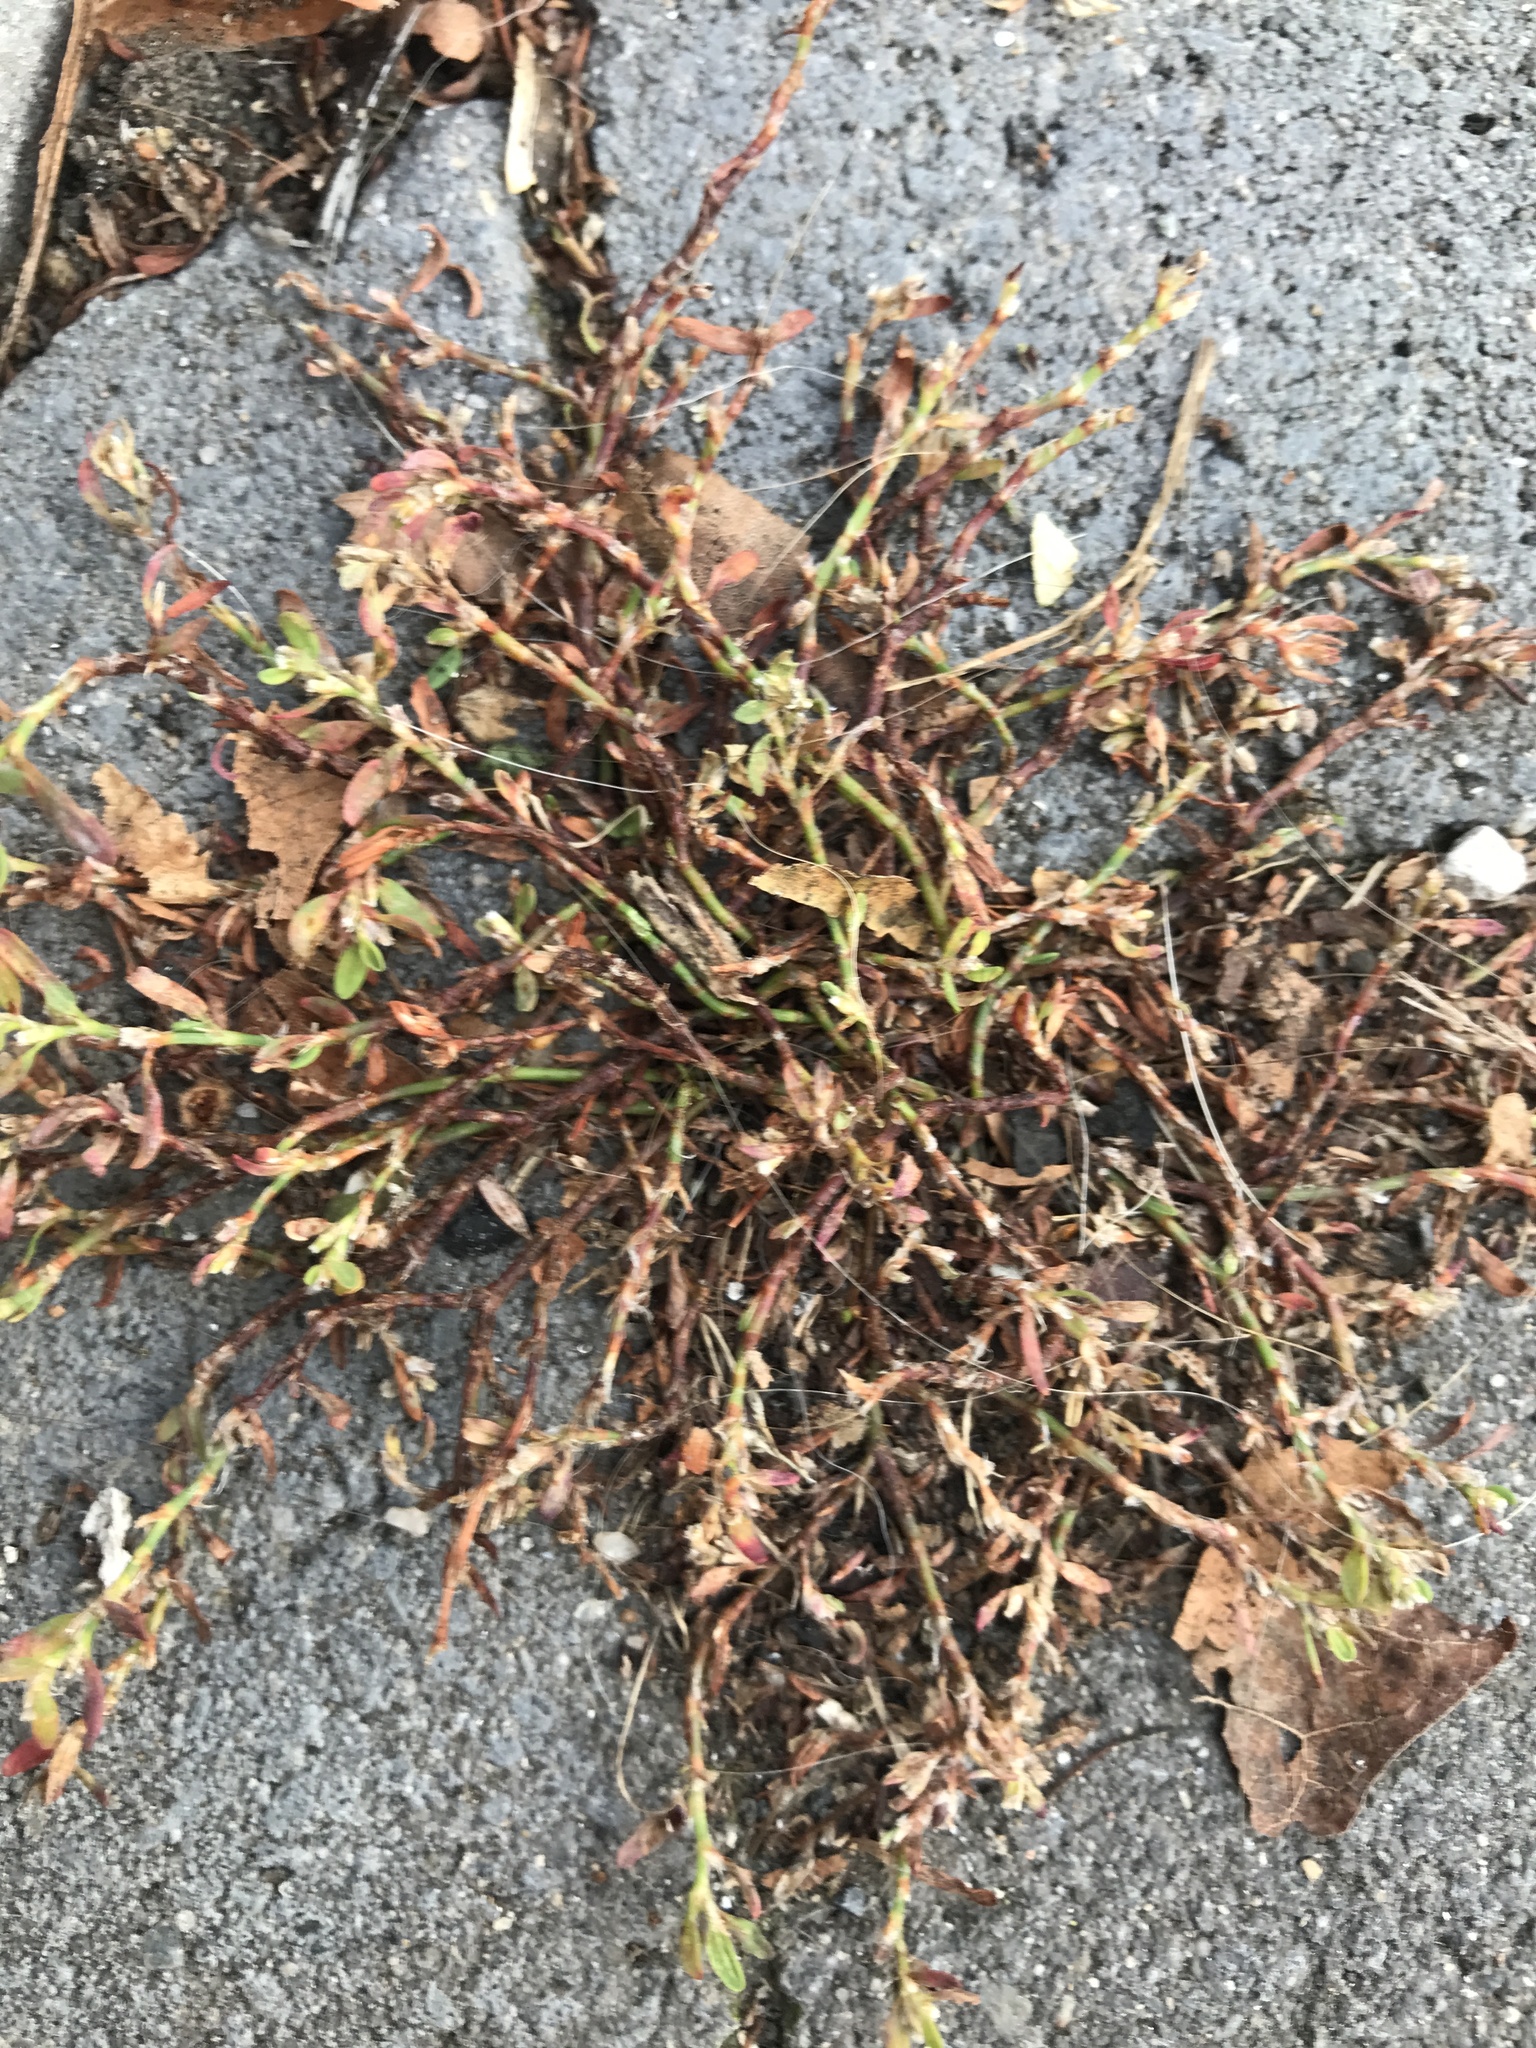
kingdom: Plantae
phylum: Tracheophyta
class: Magnoliopsida
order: Caryophyllales
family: Polygonaceae
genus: Polygonum
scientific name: Polygonum arenastrum
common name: Equal-leaved knotgrass
